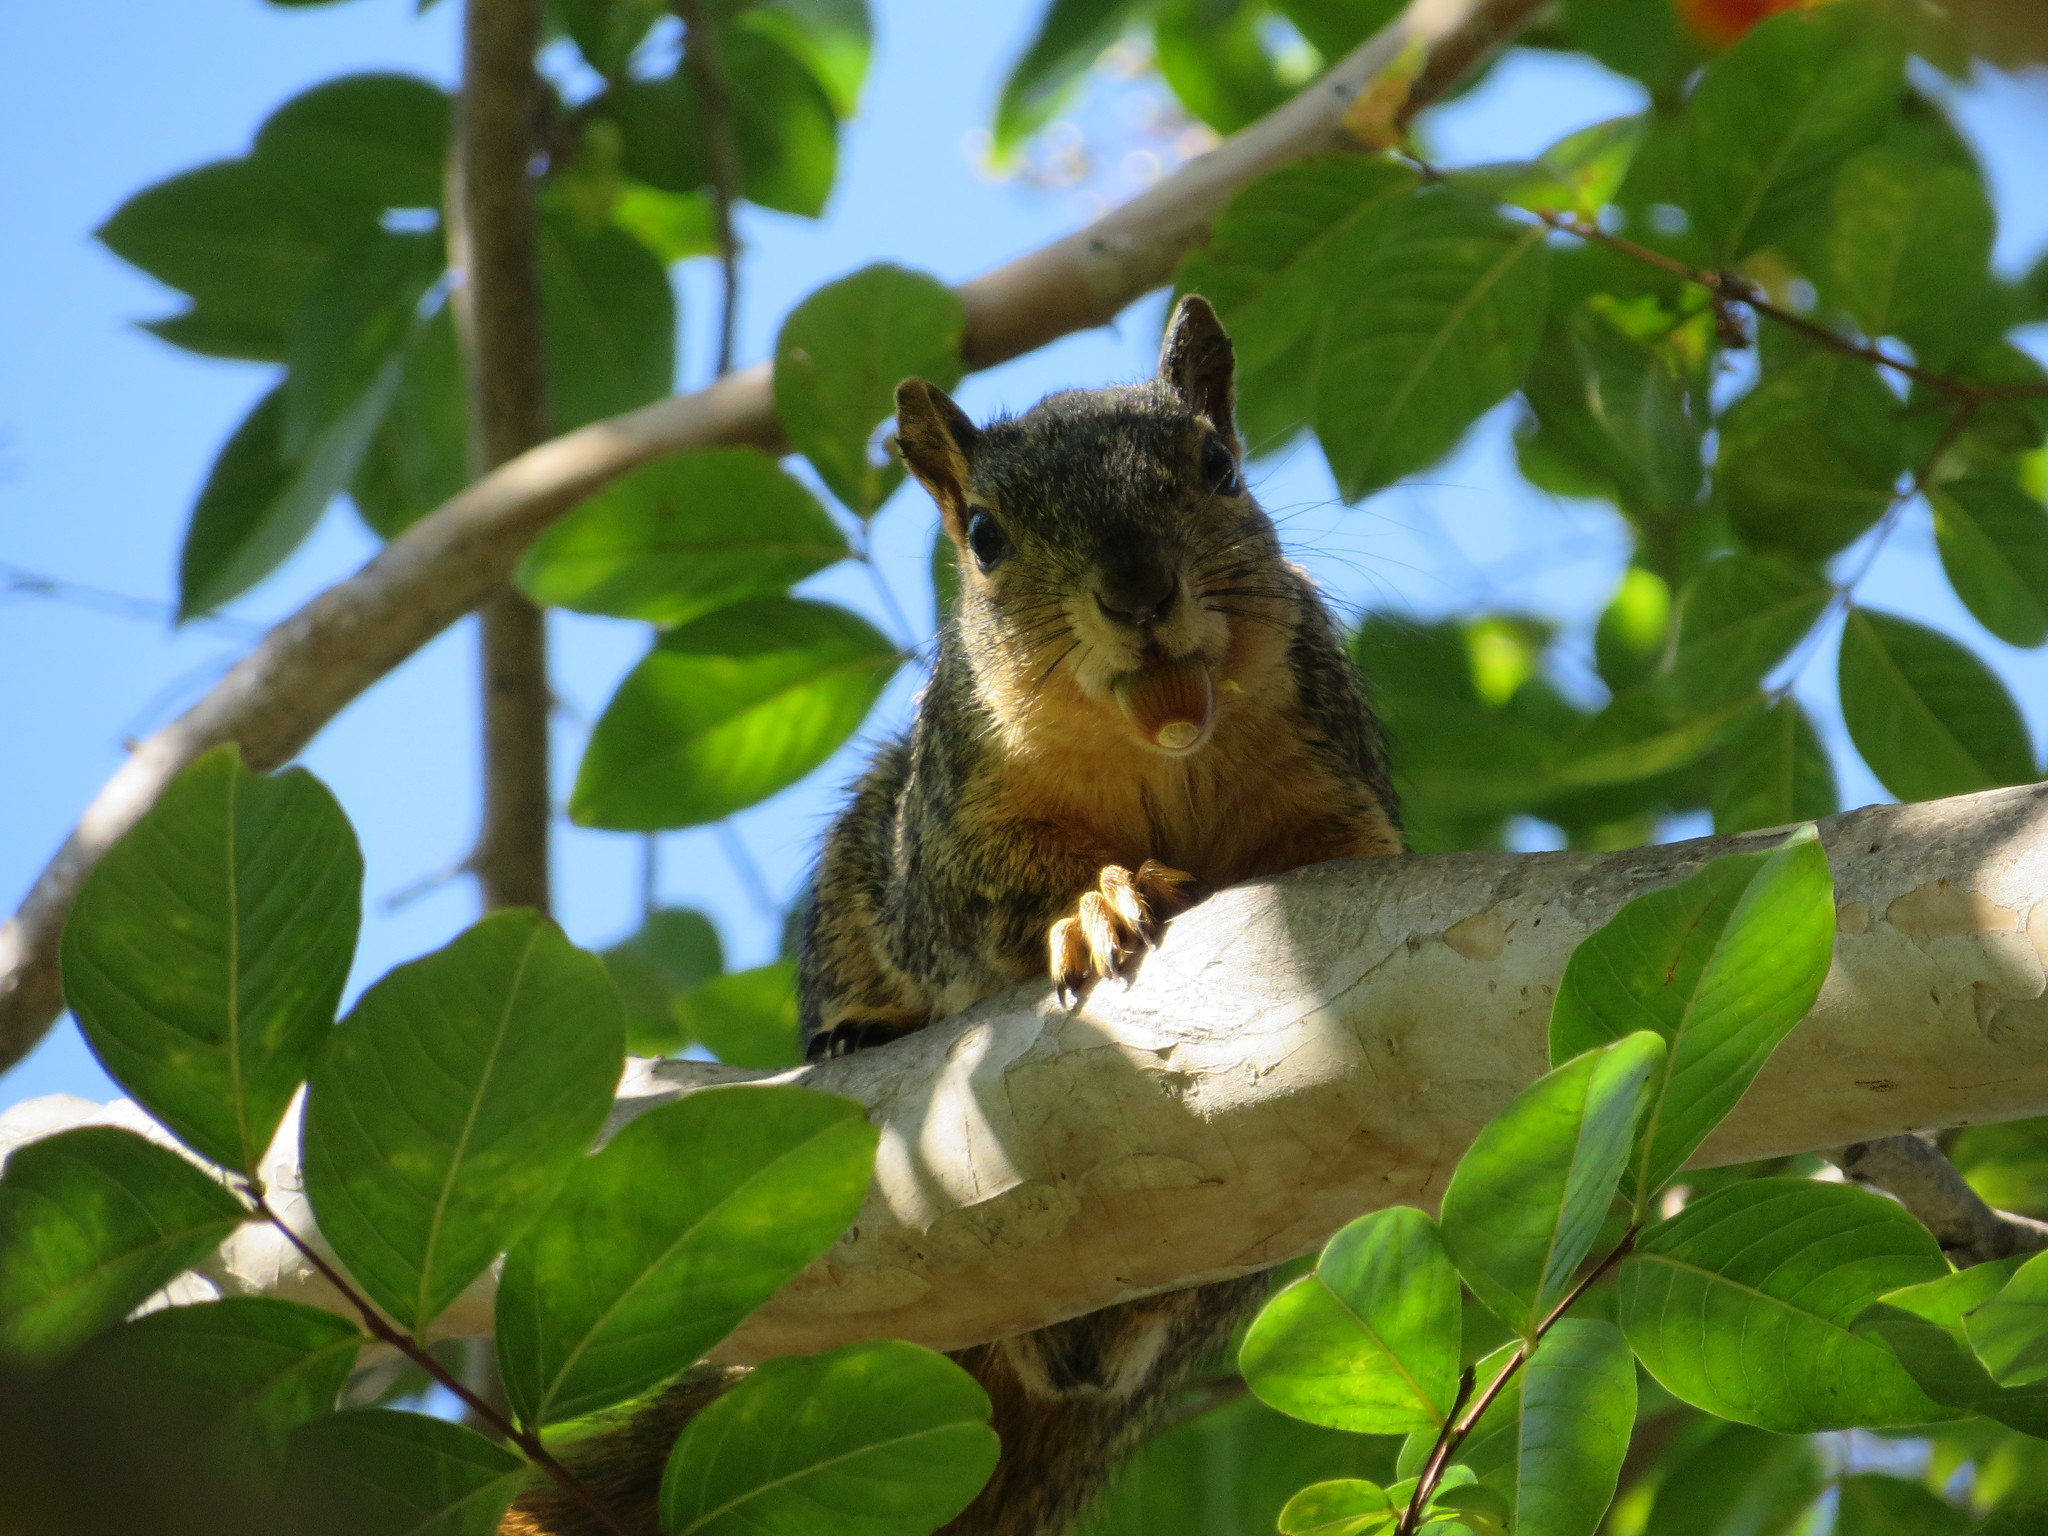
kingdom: Animalia
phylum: Chordata
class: Mammalia
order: Rodentia
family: Sciuridae
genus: Sciurus
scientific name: Sciurus niger
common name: Fox squirrel
